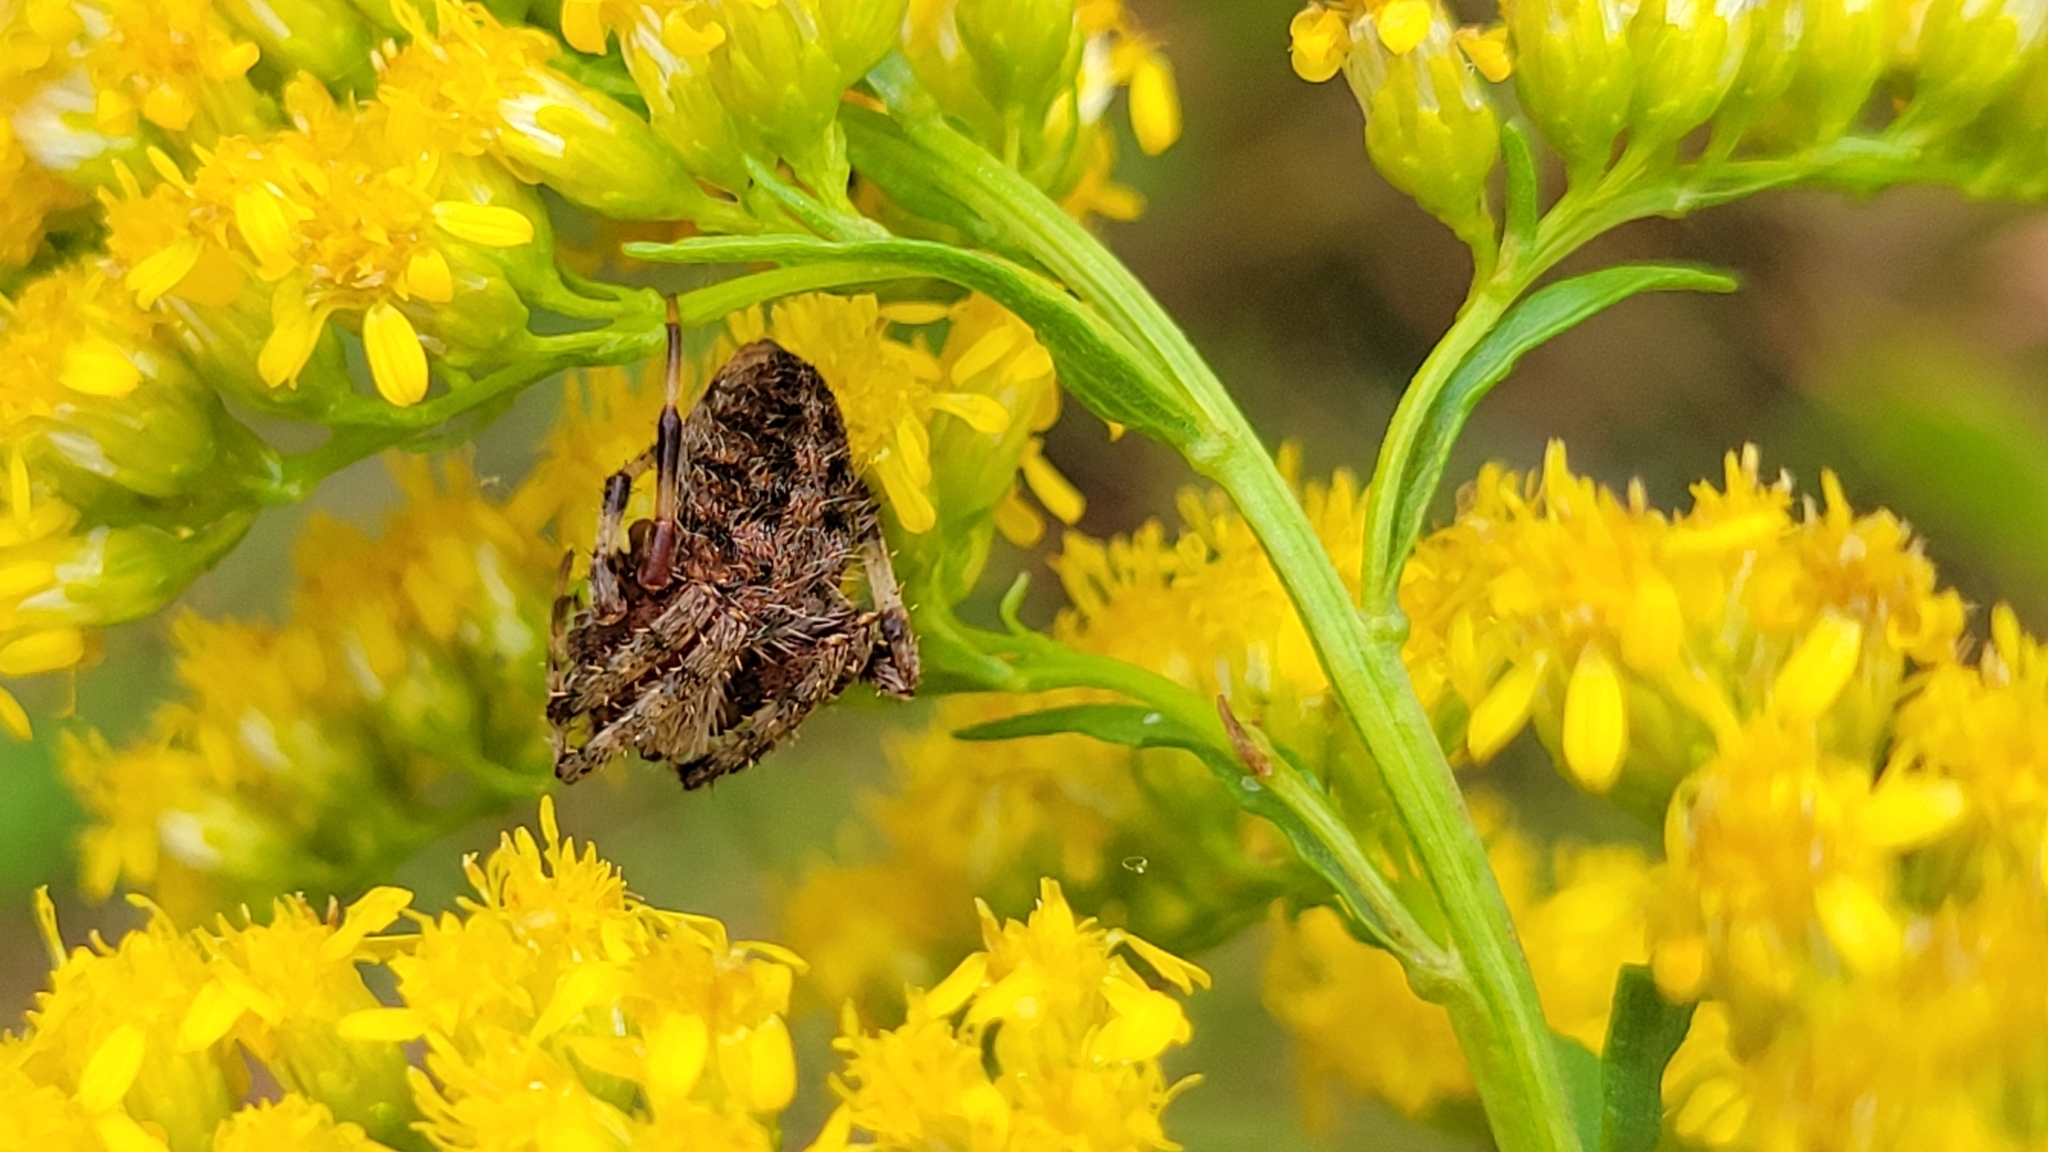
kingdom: Animalia
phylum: Arthropoda
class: Arachnida
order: Araneae
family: Araneidae
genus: Neoscona
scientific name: Neoscona crucifera
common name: Spotted orbweaver
